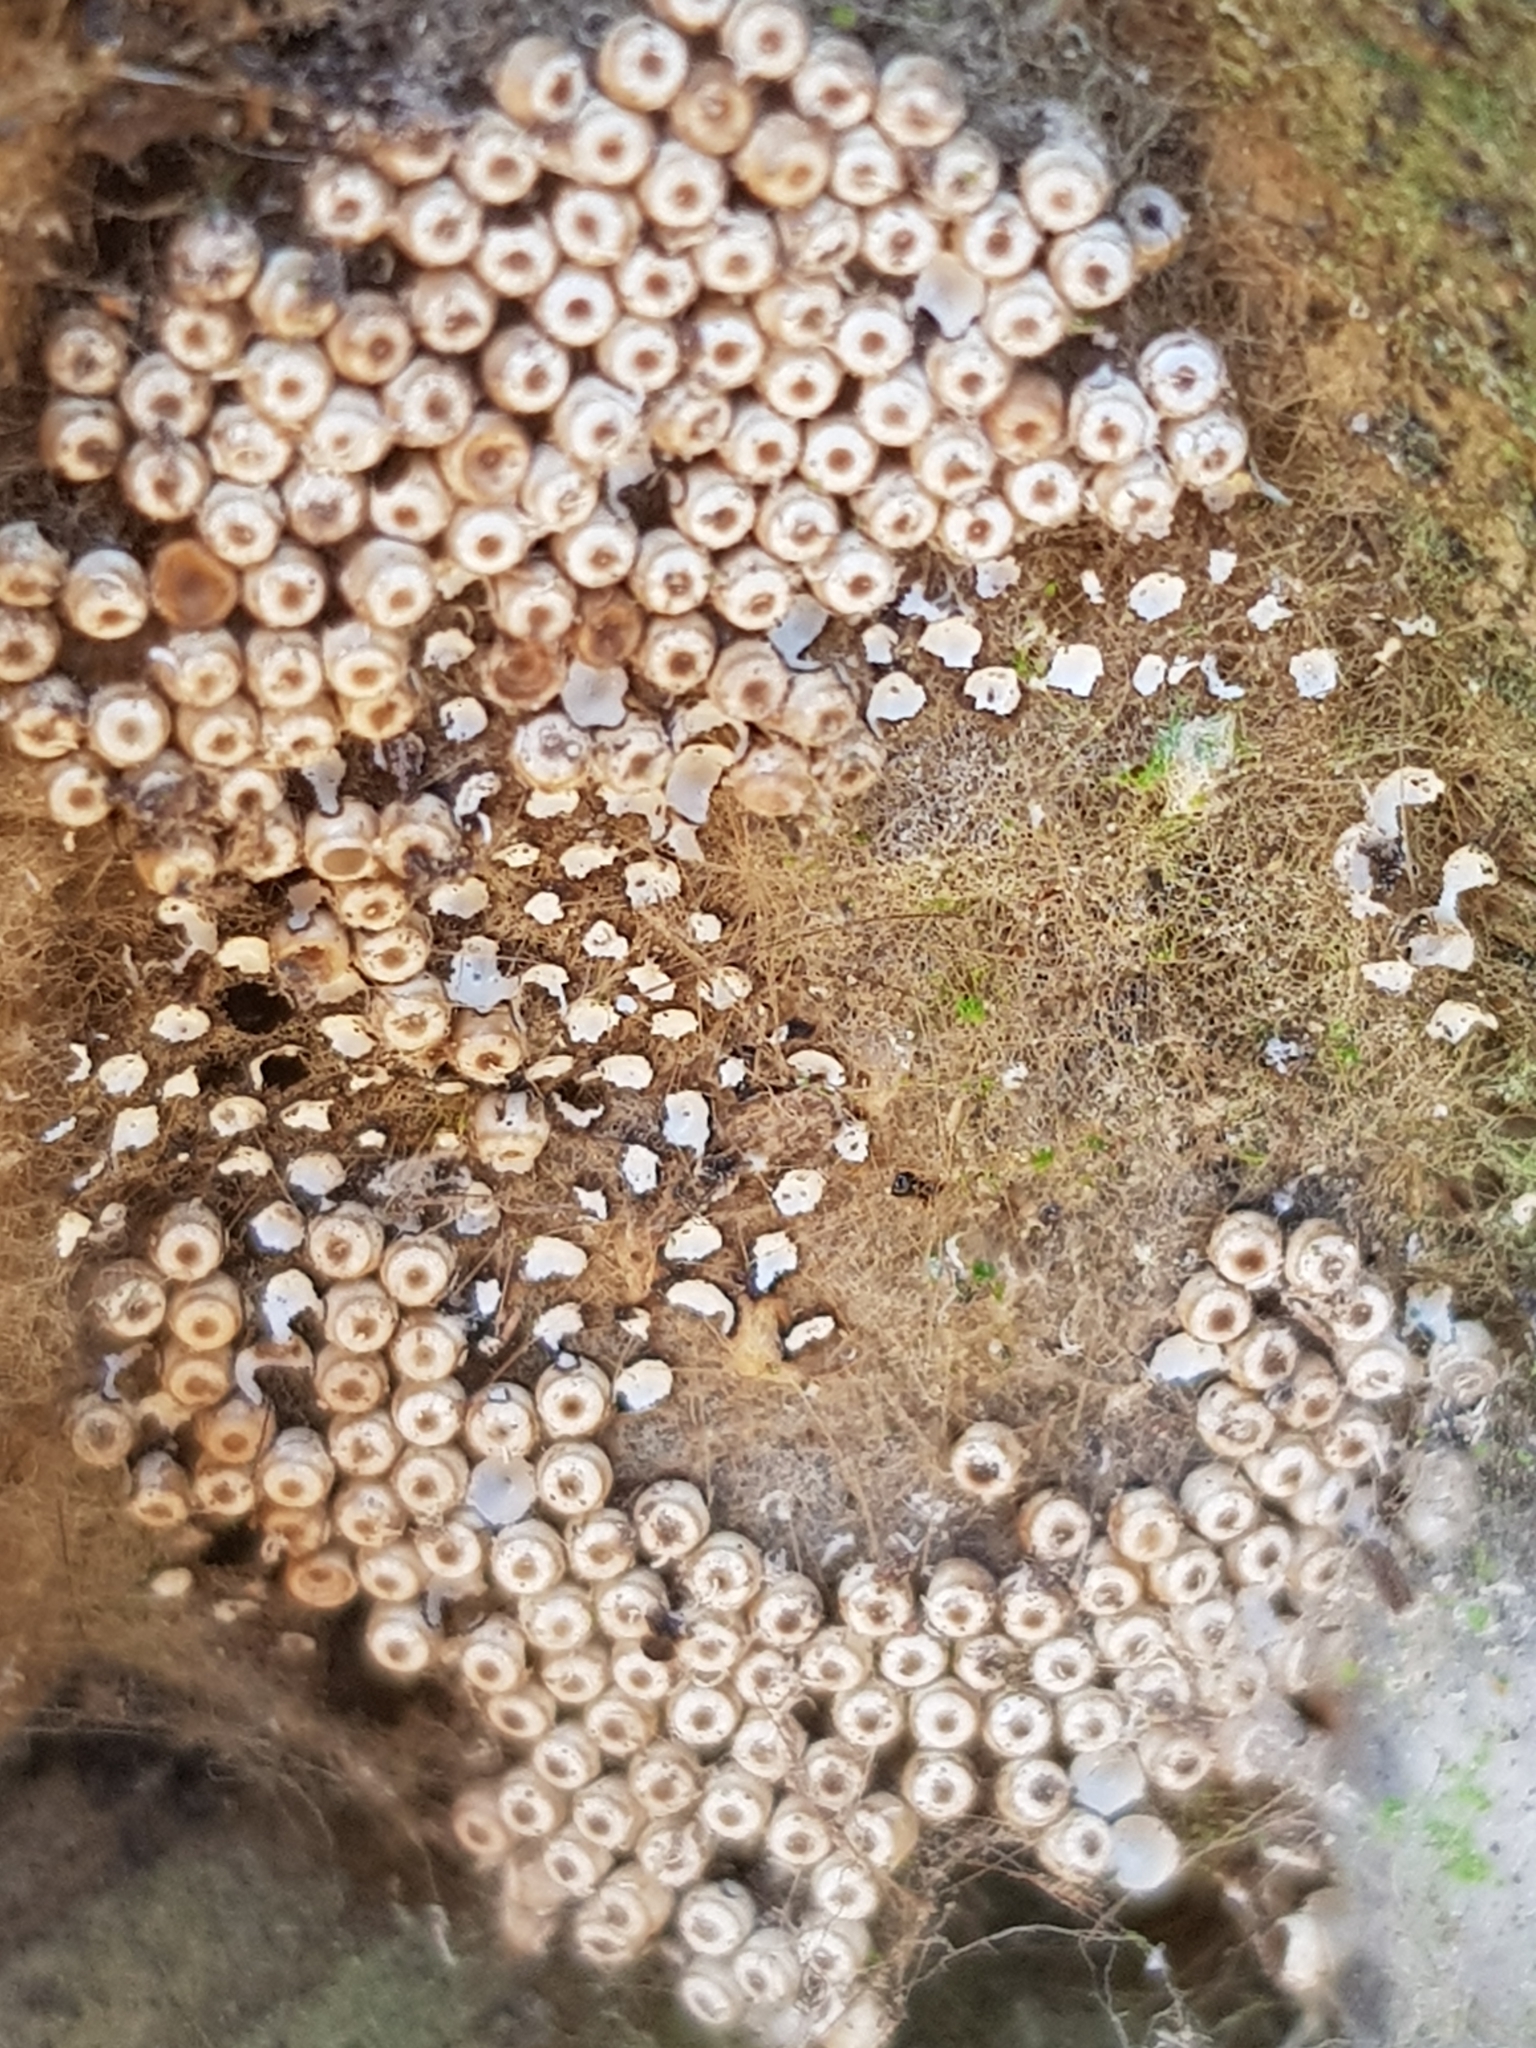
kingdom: Animalia
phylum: Arthropoda
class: Insecta
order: Lepidoptera
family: Erebidae
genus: Orgyia
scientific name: Orgyia antiqua
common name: Vapourer
